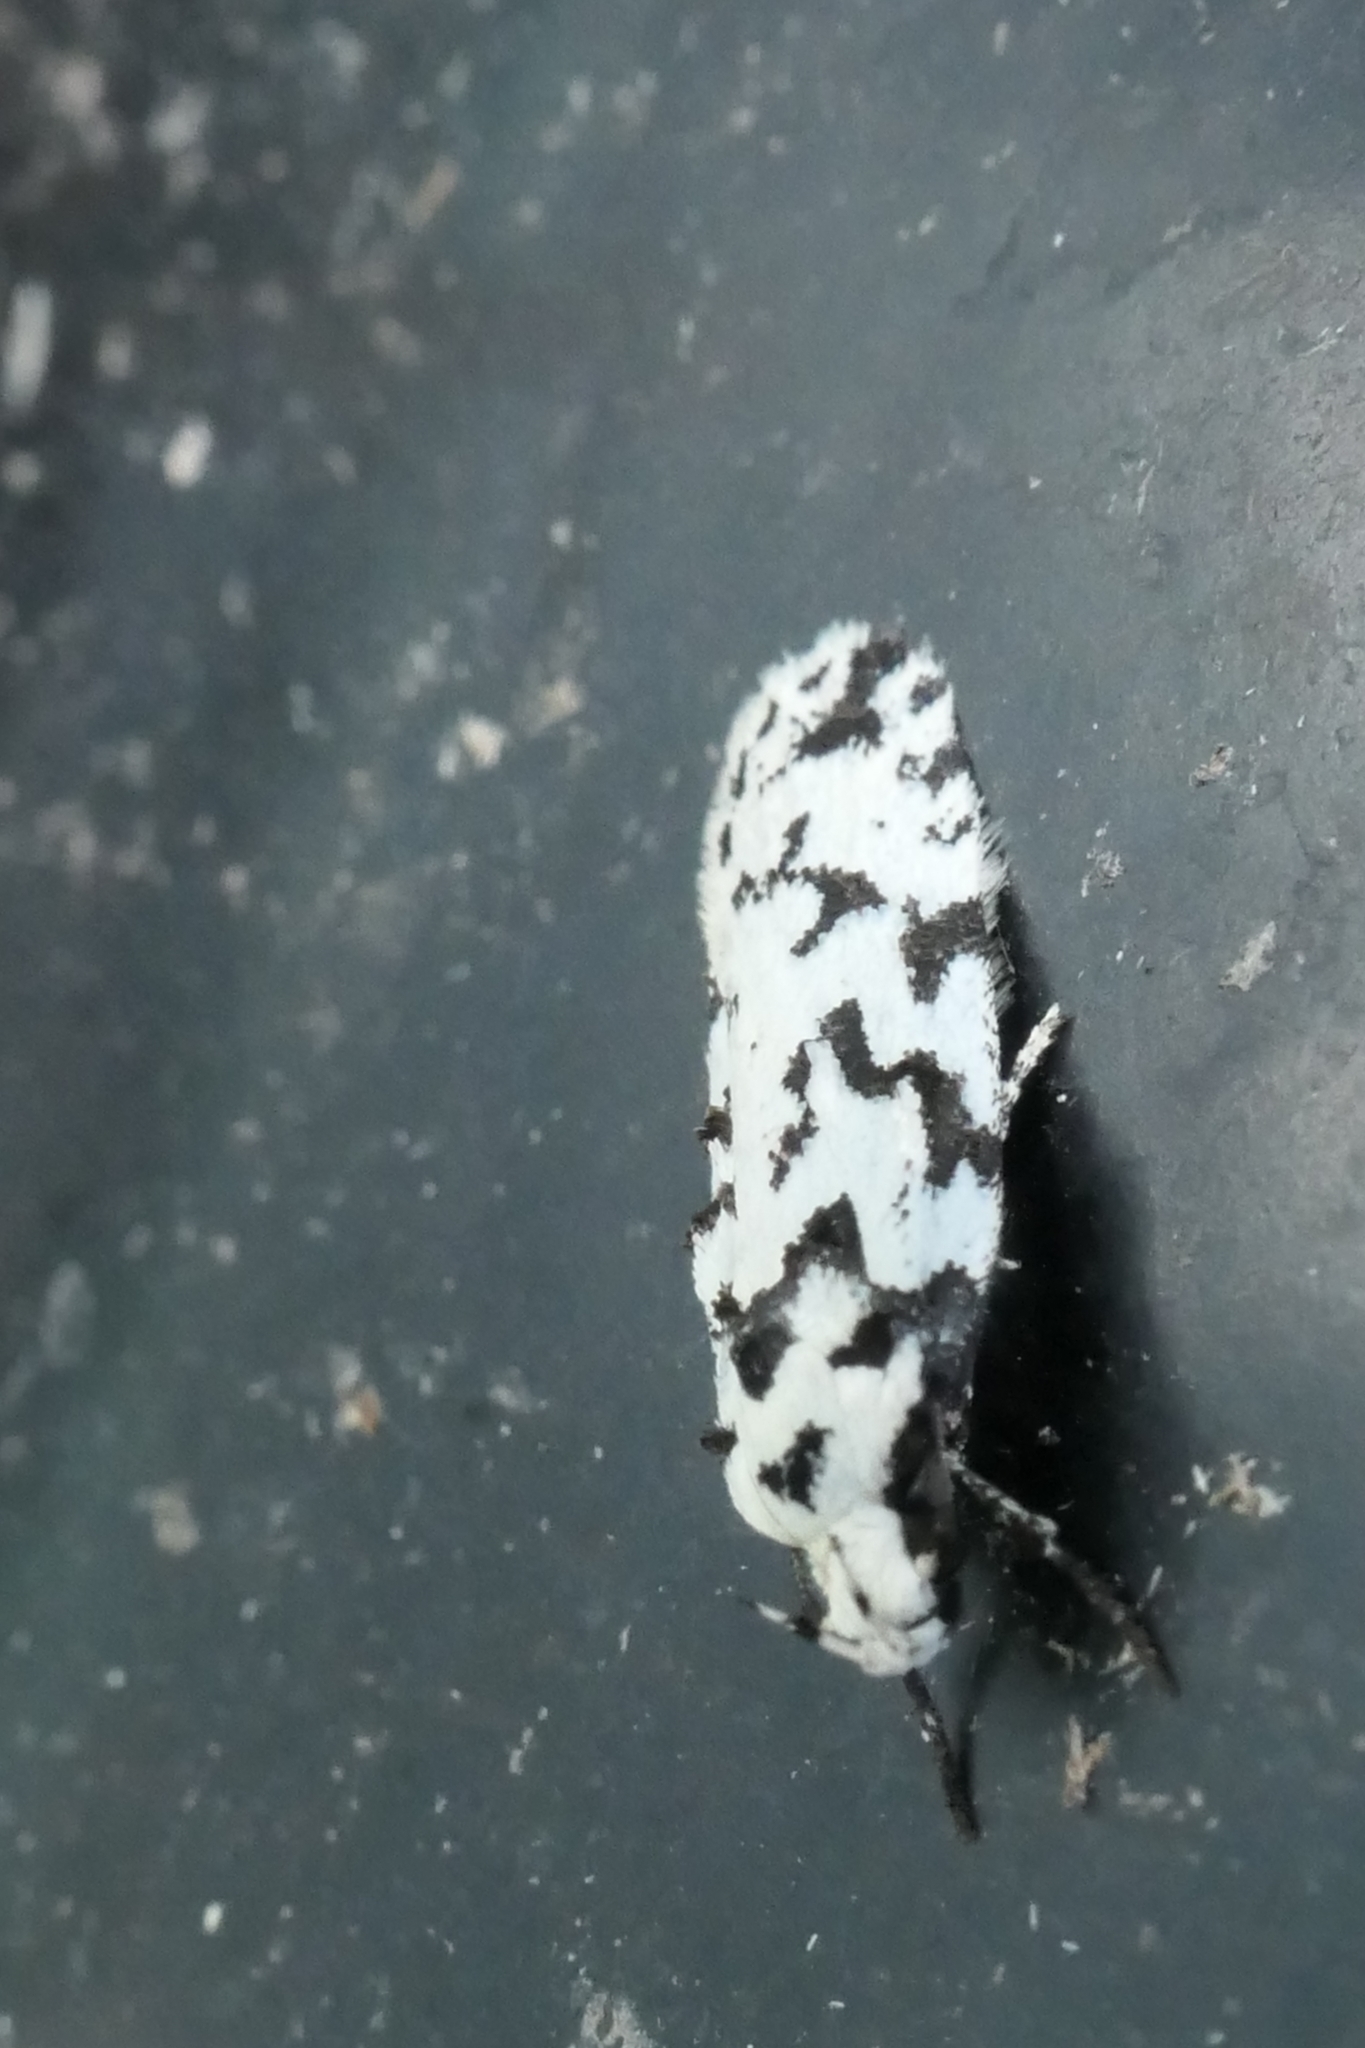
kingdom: Animalia
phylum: Arthropoda
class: Insecta
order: Lepidoptera
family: Oecophoridae
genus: Izatha
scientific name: Izatha katadiktya
